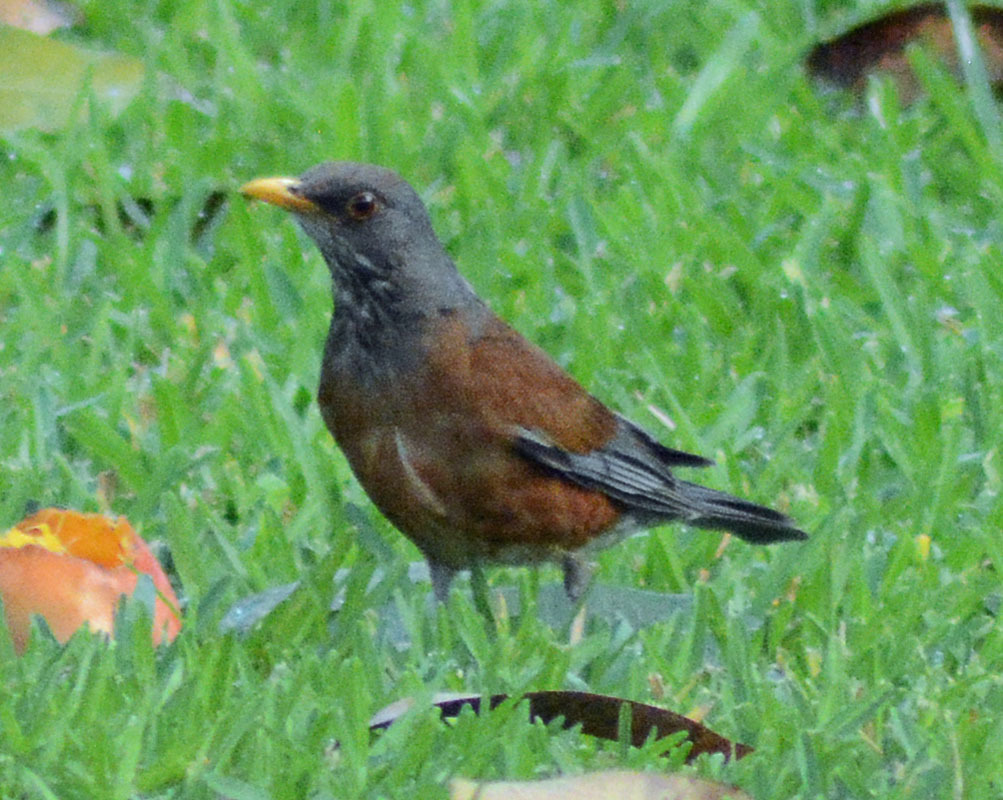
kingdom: Animalia
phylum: Chordata
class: Aves
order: Passeriformes
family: Turdidae
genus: Turdus
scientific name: Turdus rufopalliatus
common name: Rufous-backed robin
